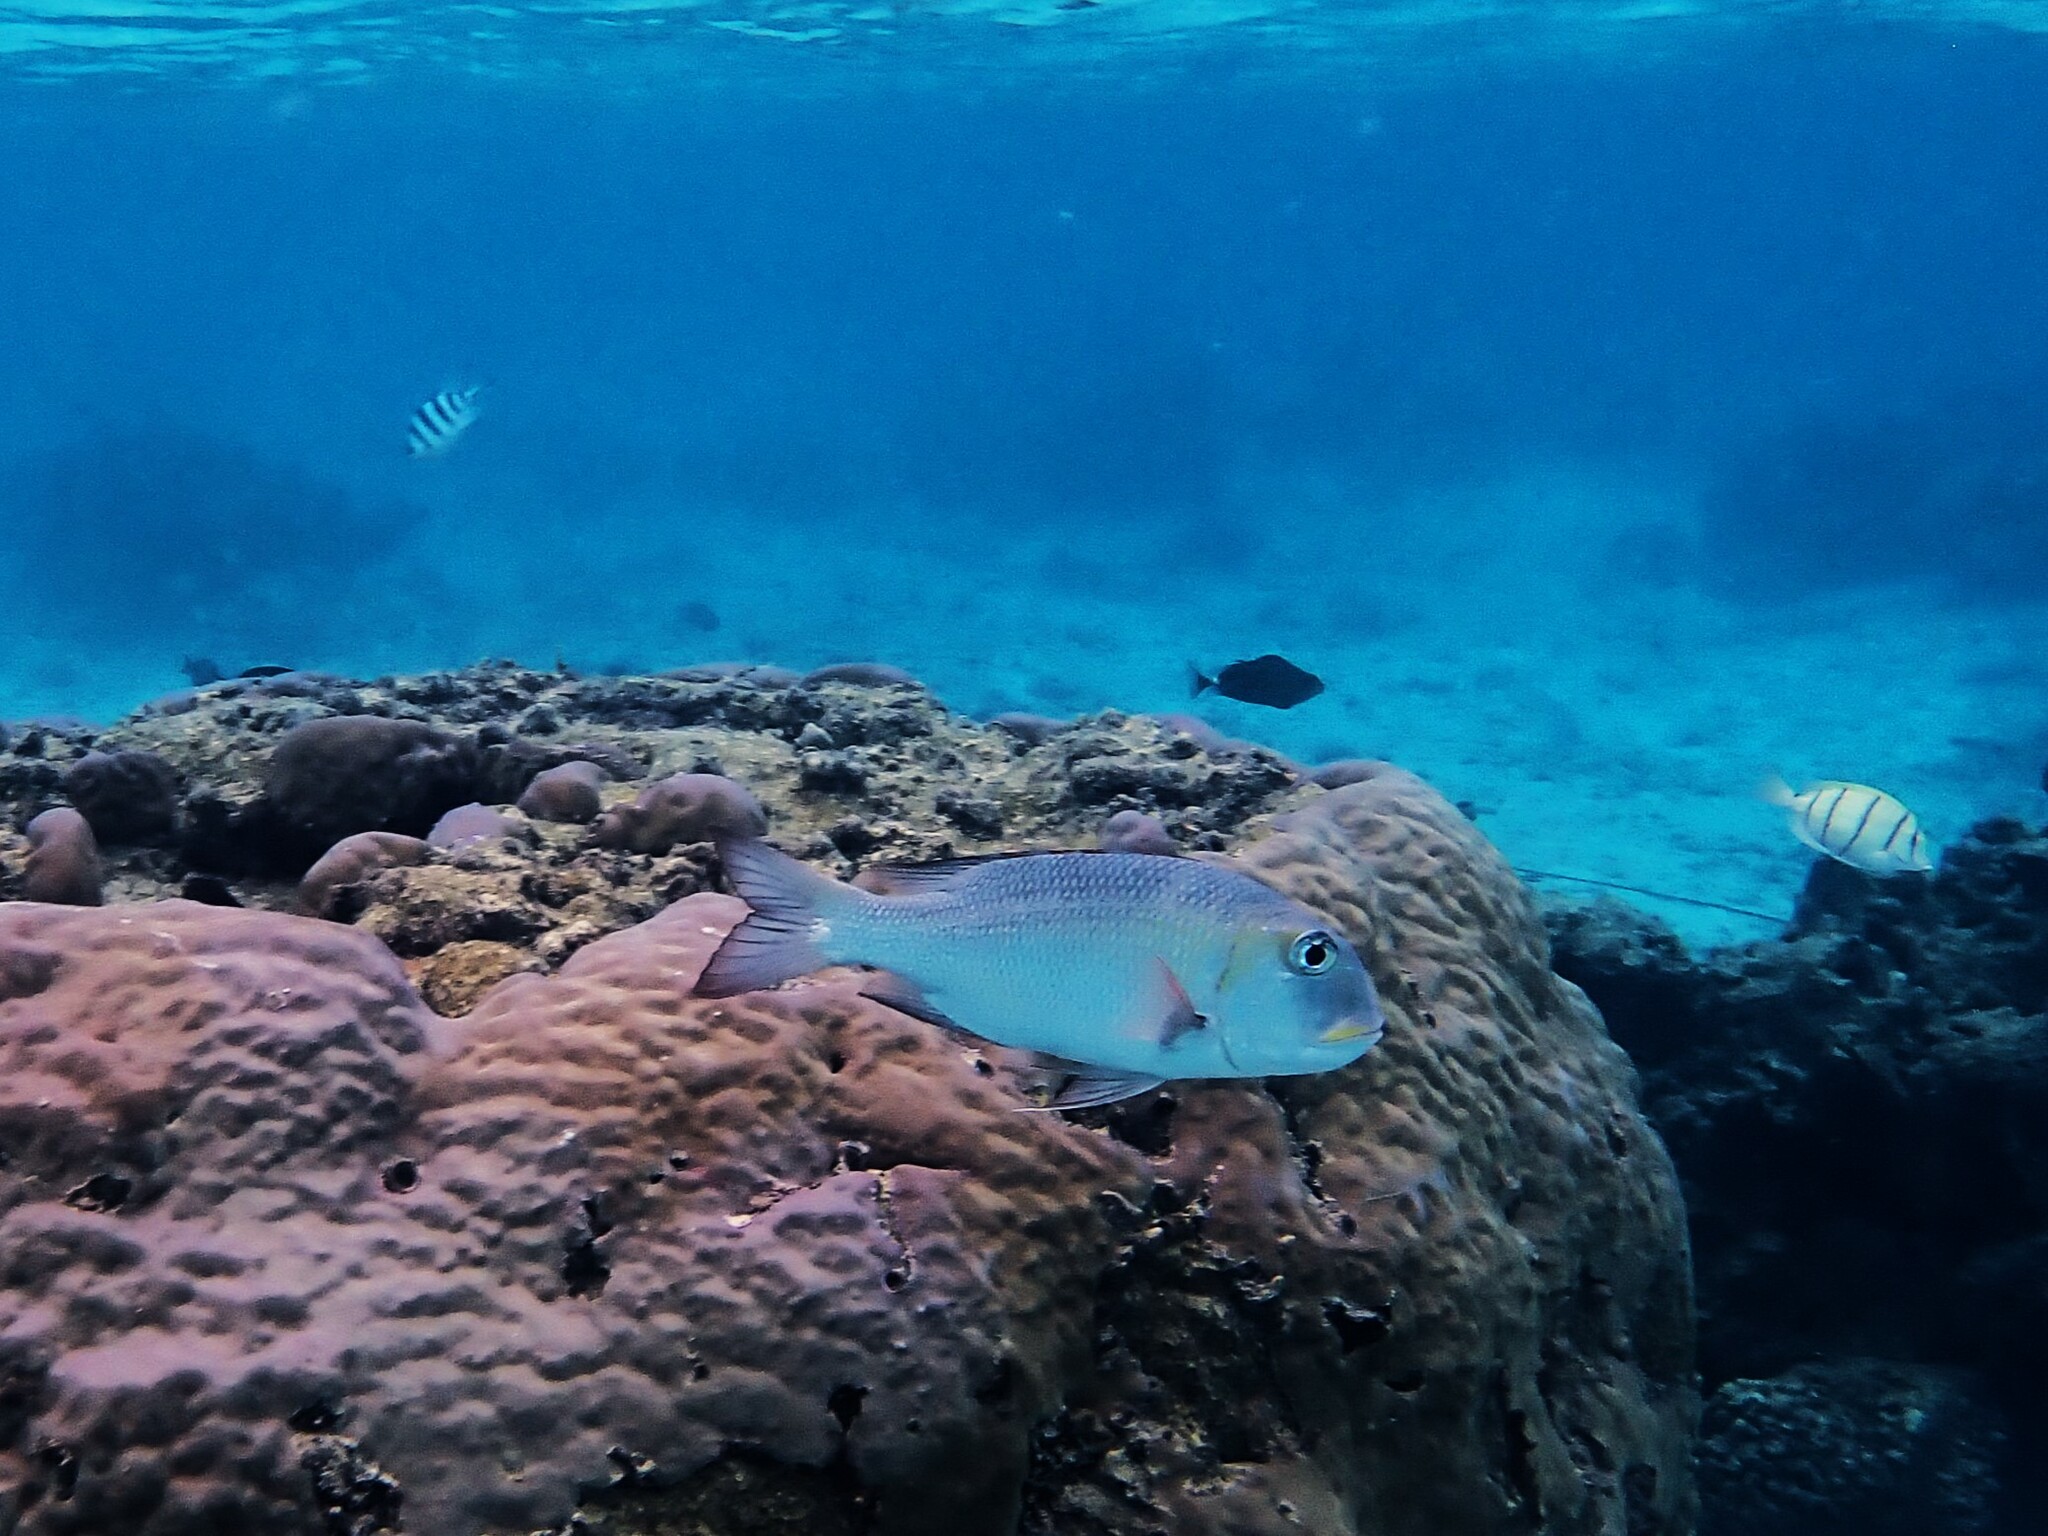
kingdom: Animalia
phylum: Chordata
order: Perciformes
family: Lethrinidae
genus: Monotaxis
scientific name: Monotaxis grandoculis
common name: Bigeye emperor
